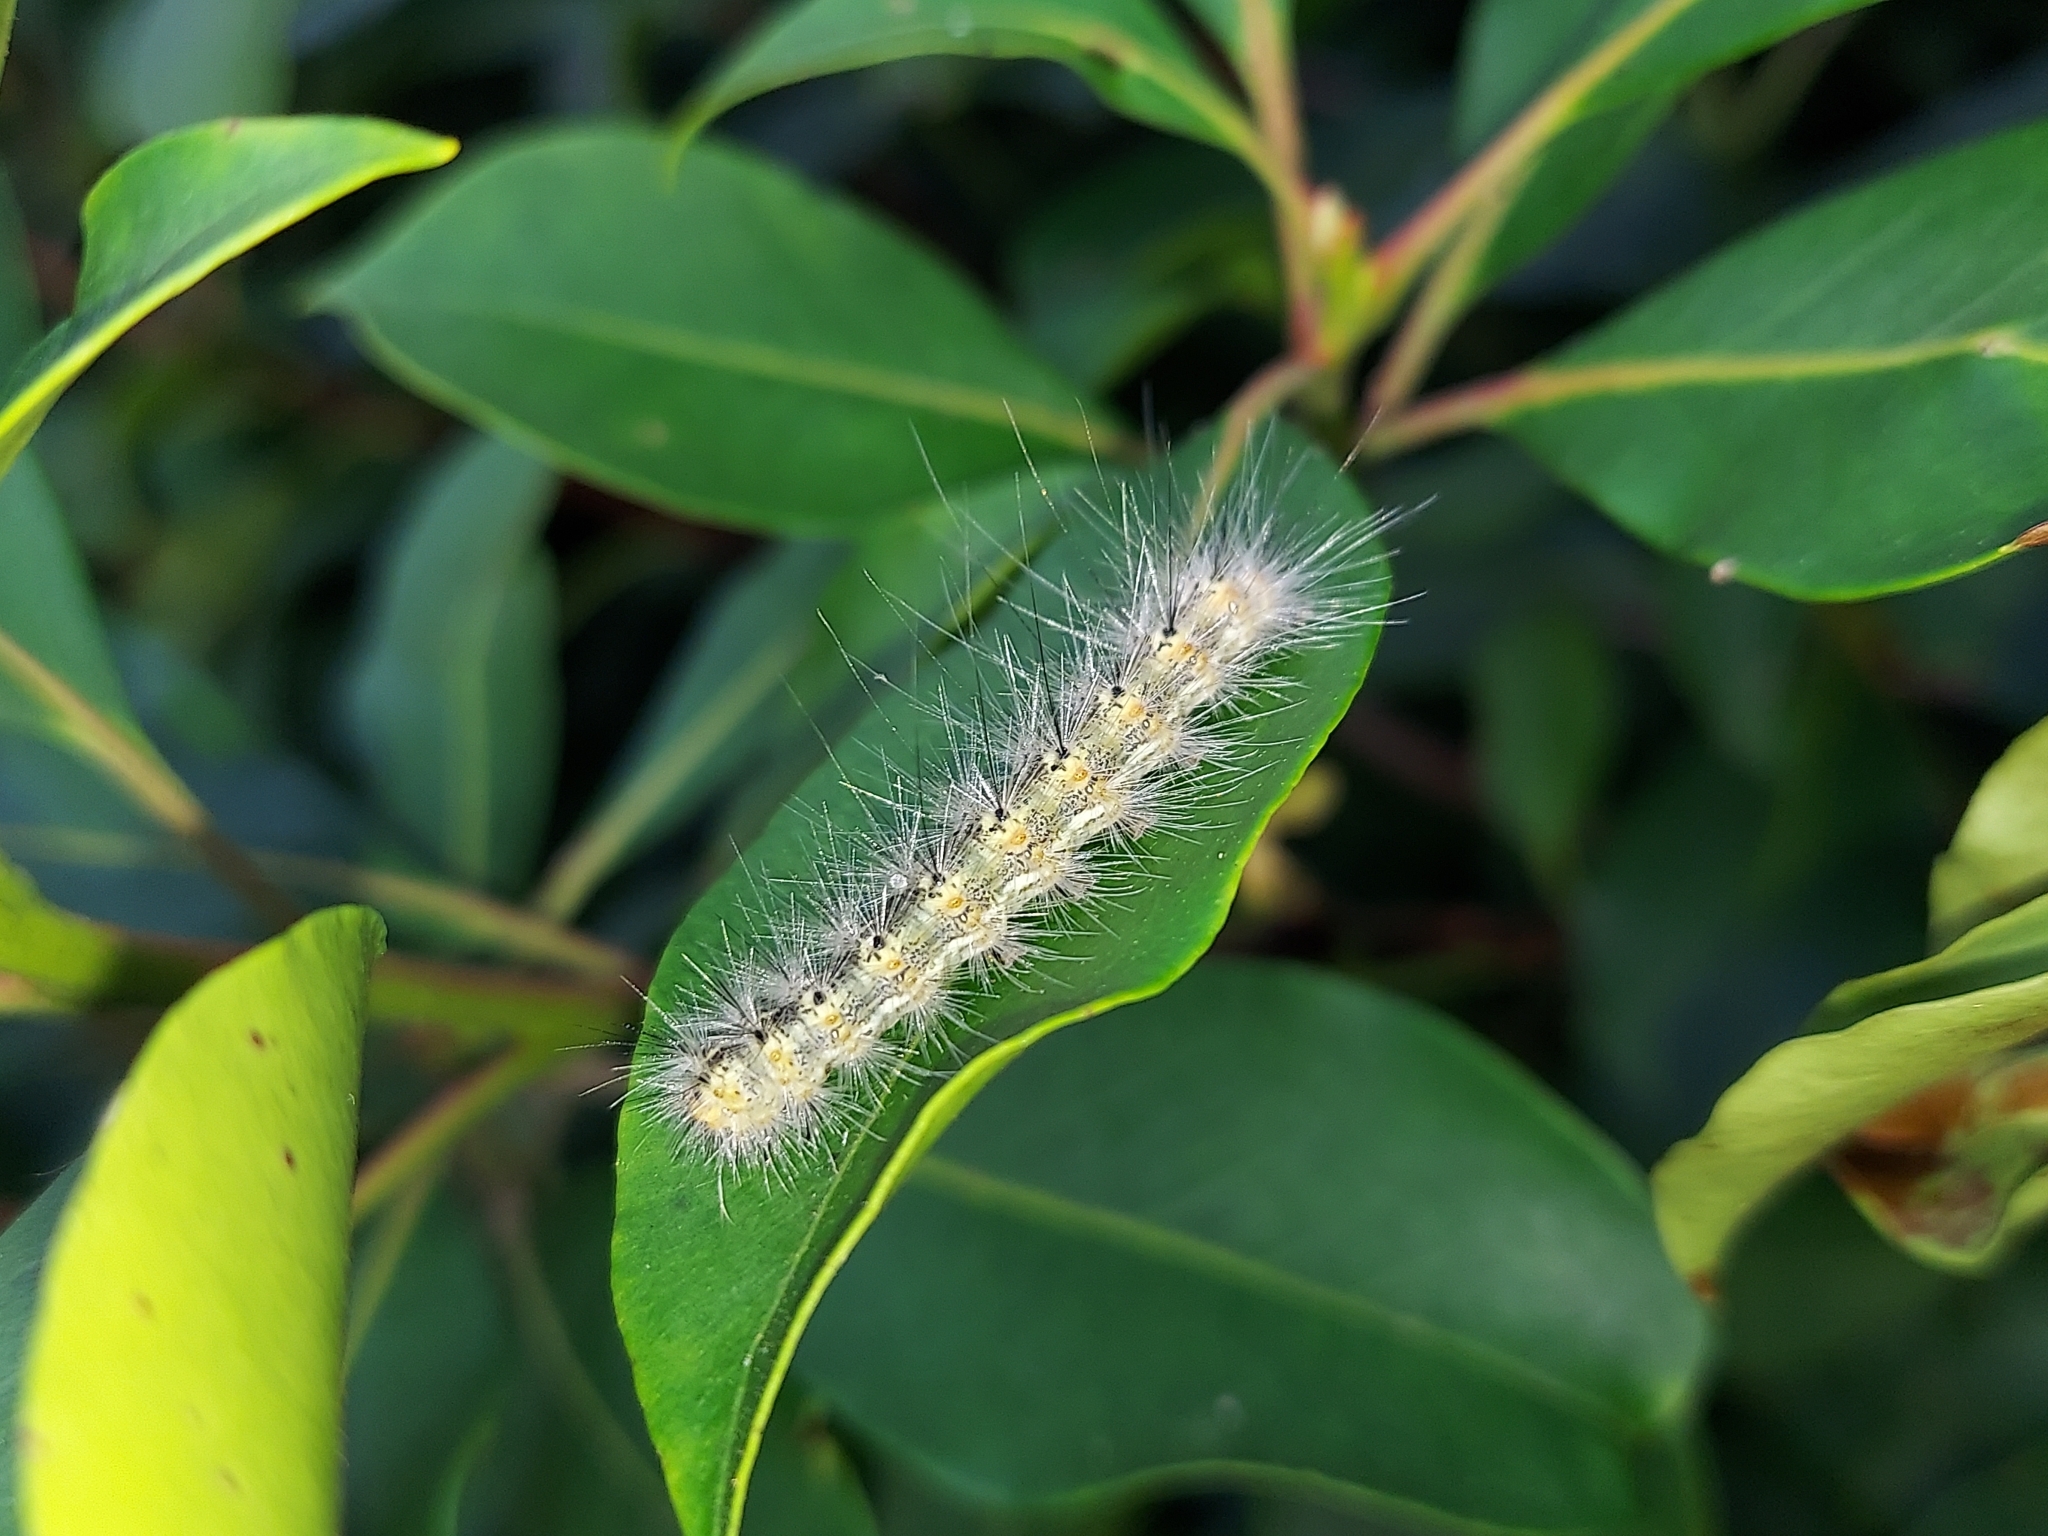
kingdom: Animalia
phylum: Arthropoda
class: Insecta
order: Lepidoptera
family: Erebidae
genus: Hyphantria
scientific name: Hyphantria cunea
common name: American white moth
